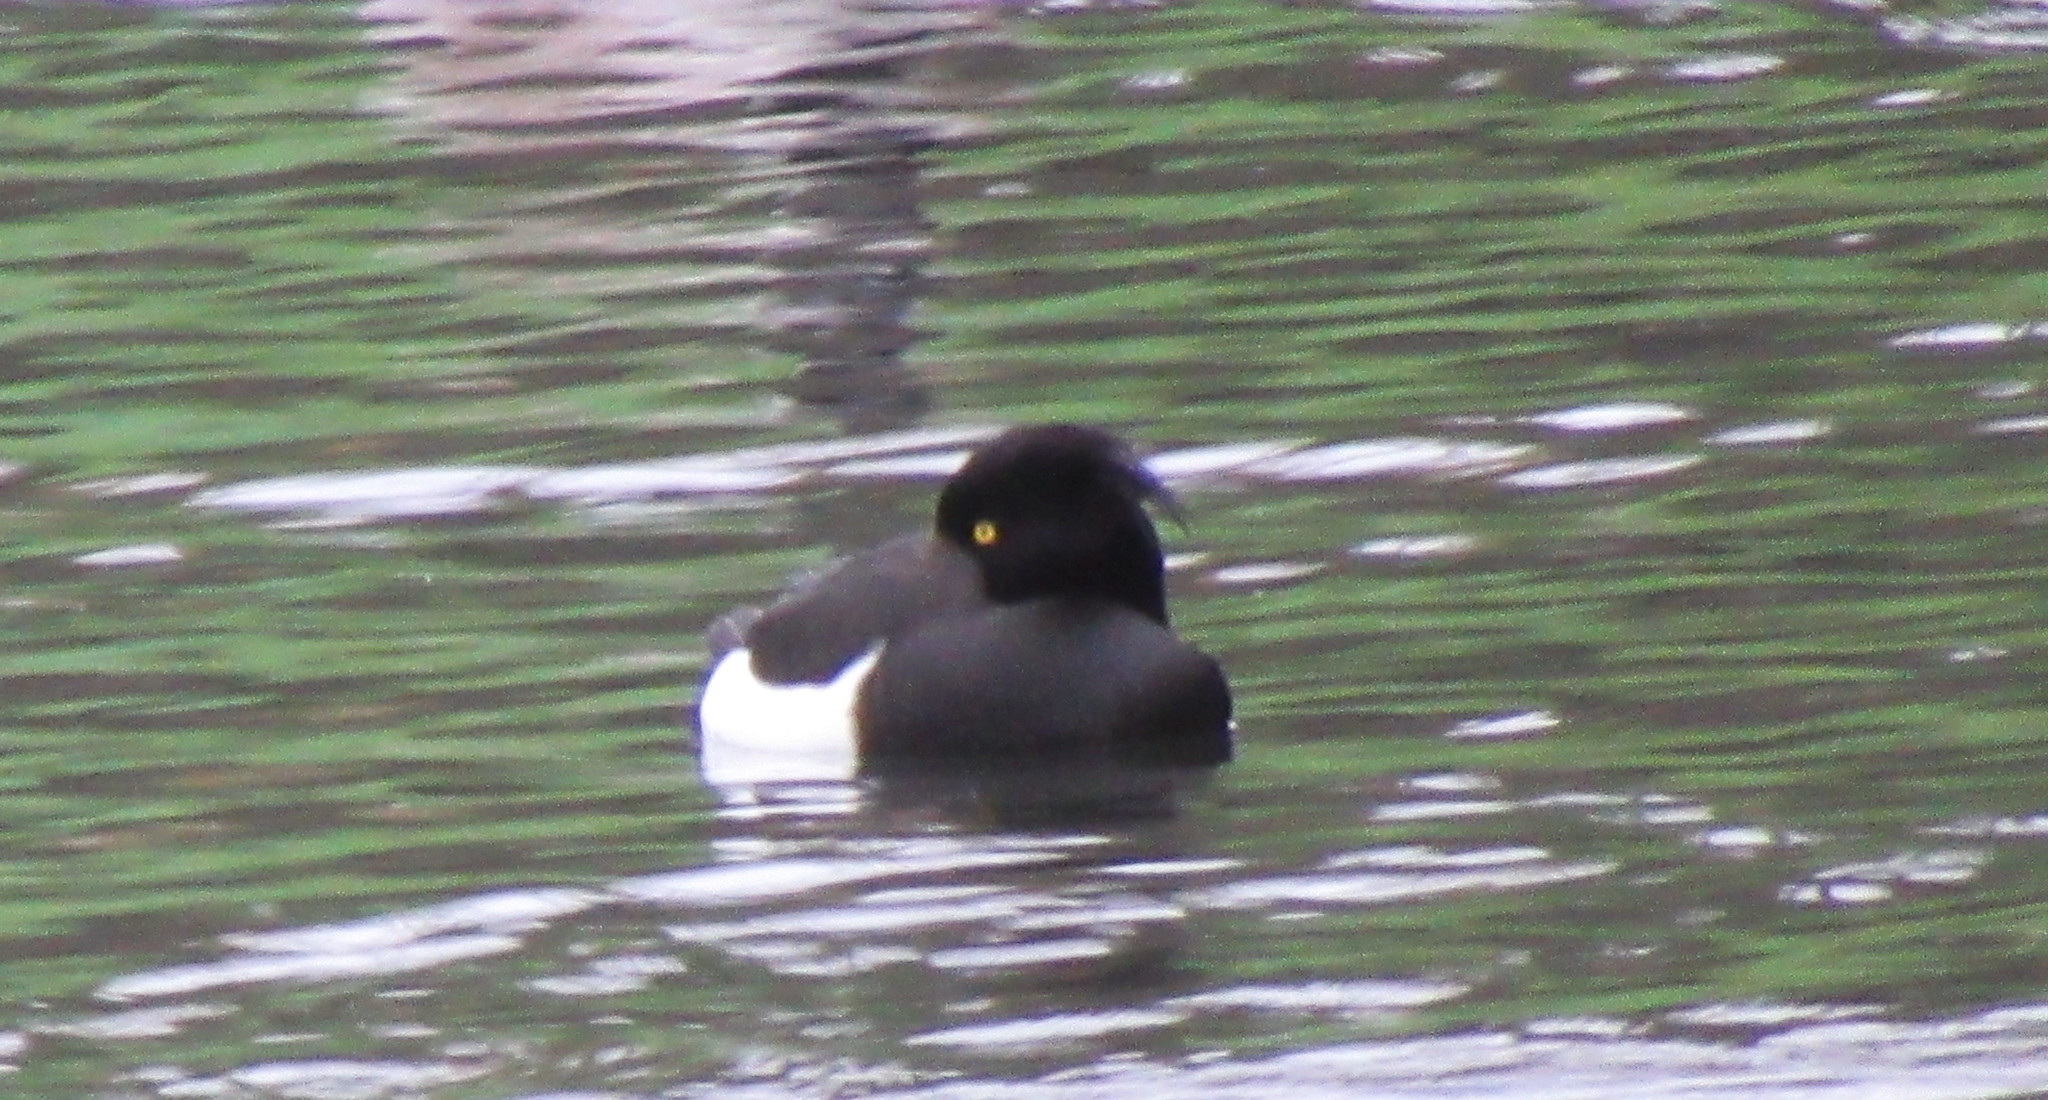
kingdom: Animalia
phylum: Chordata
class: Aves
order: Anseriformes
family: Anatidae
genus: Aythya
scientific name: Aythya fuligula
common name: Tufted duck
